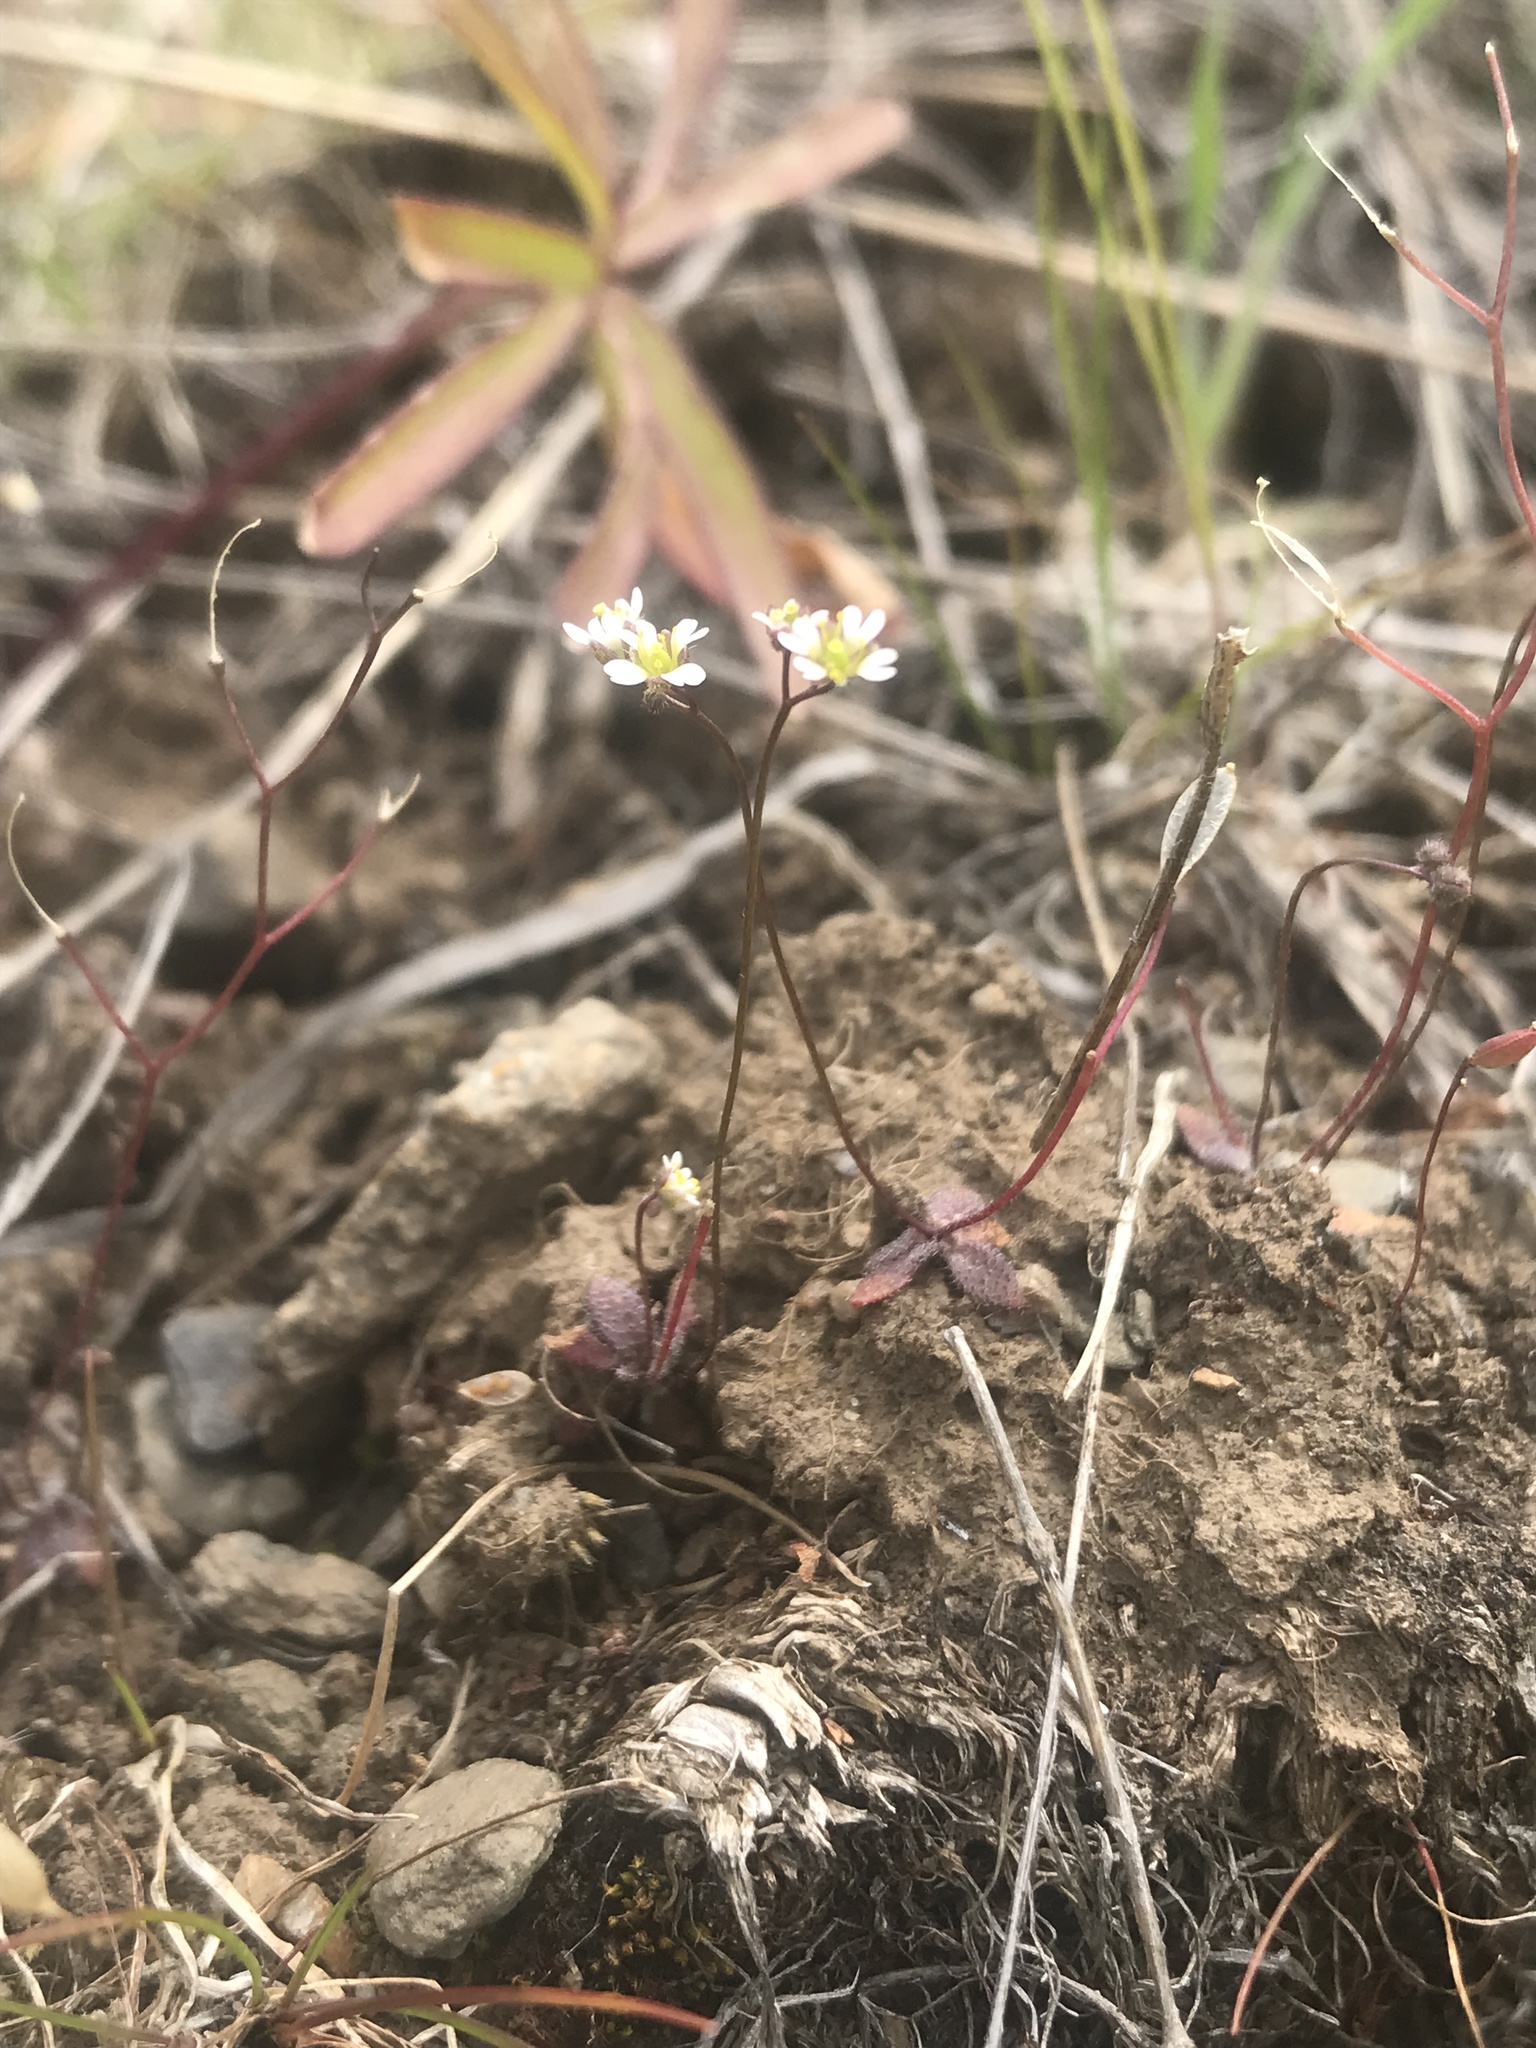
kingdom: Plantae
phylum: Tracheophyta
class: Magnoliopsida
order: Brassicales
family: Brassicaceae
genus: Draba
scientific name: Draba verna
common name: Spring draba
